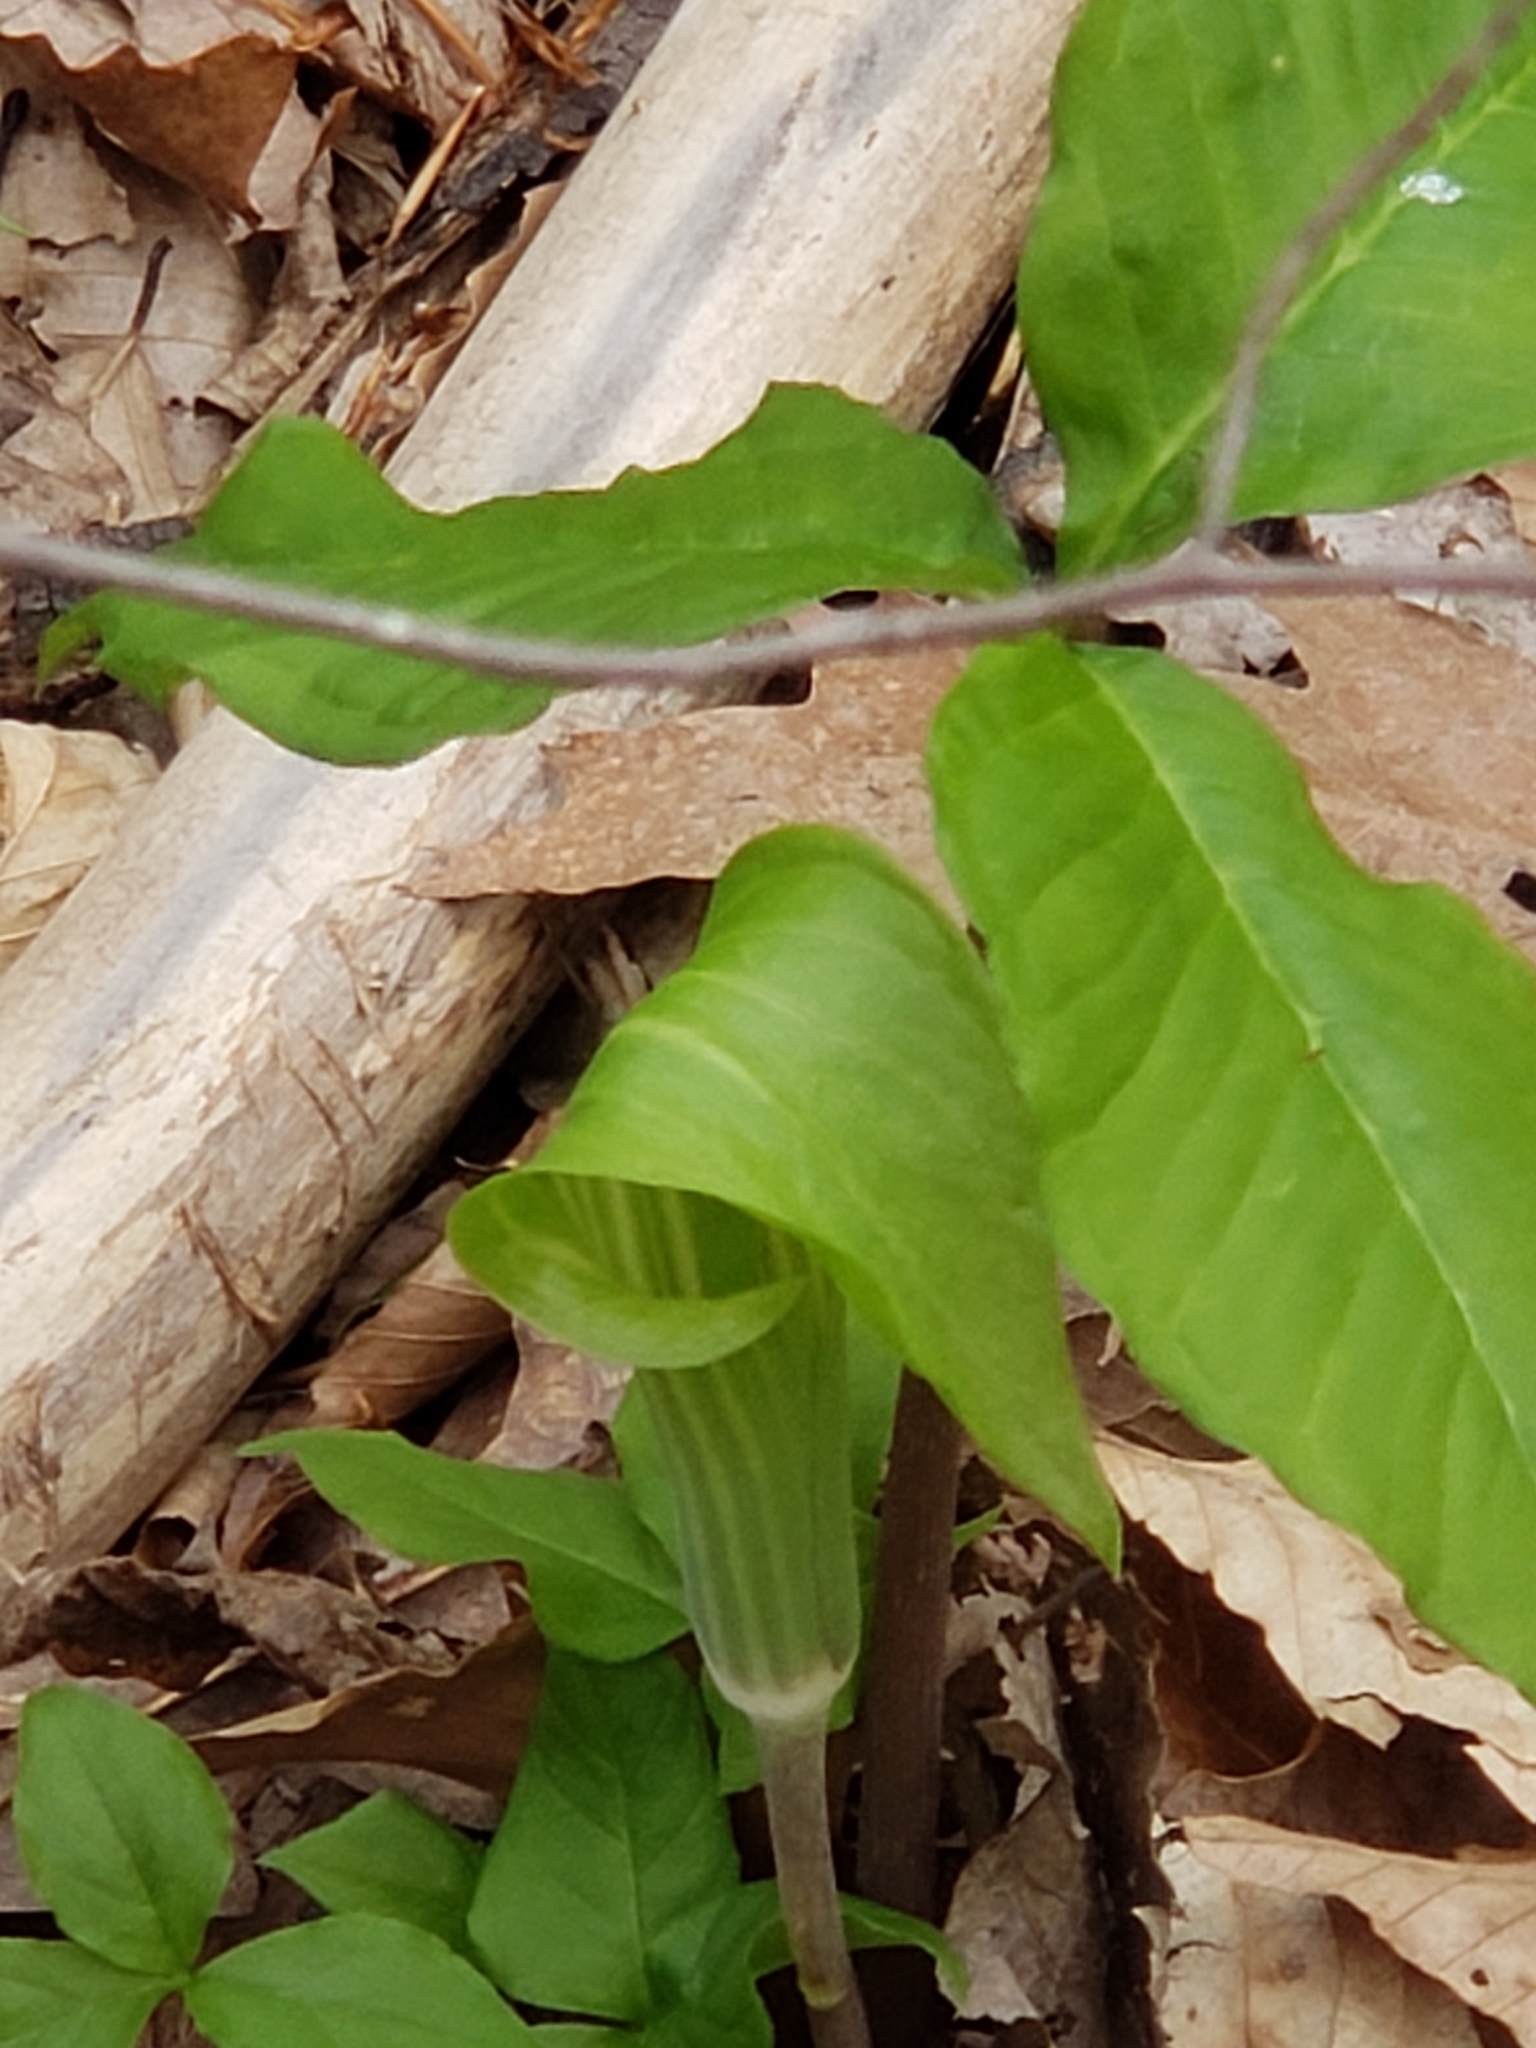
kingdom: Plantae
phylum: Tracheophyta
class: Liliopsida
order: Alismatales
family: Araceae
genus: Arisaema
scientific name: Arisaema triphyllum
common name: Jack-in-the-pulpit
